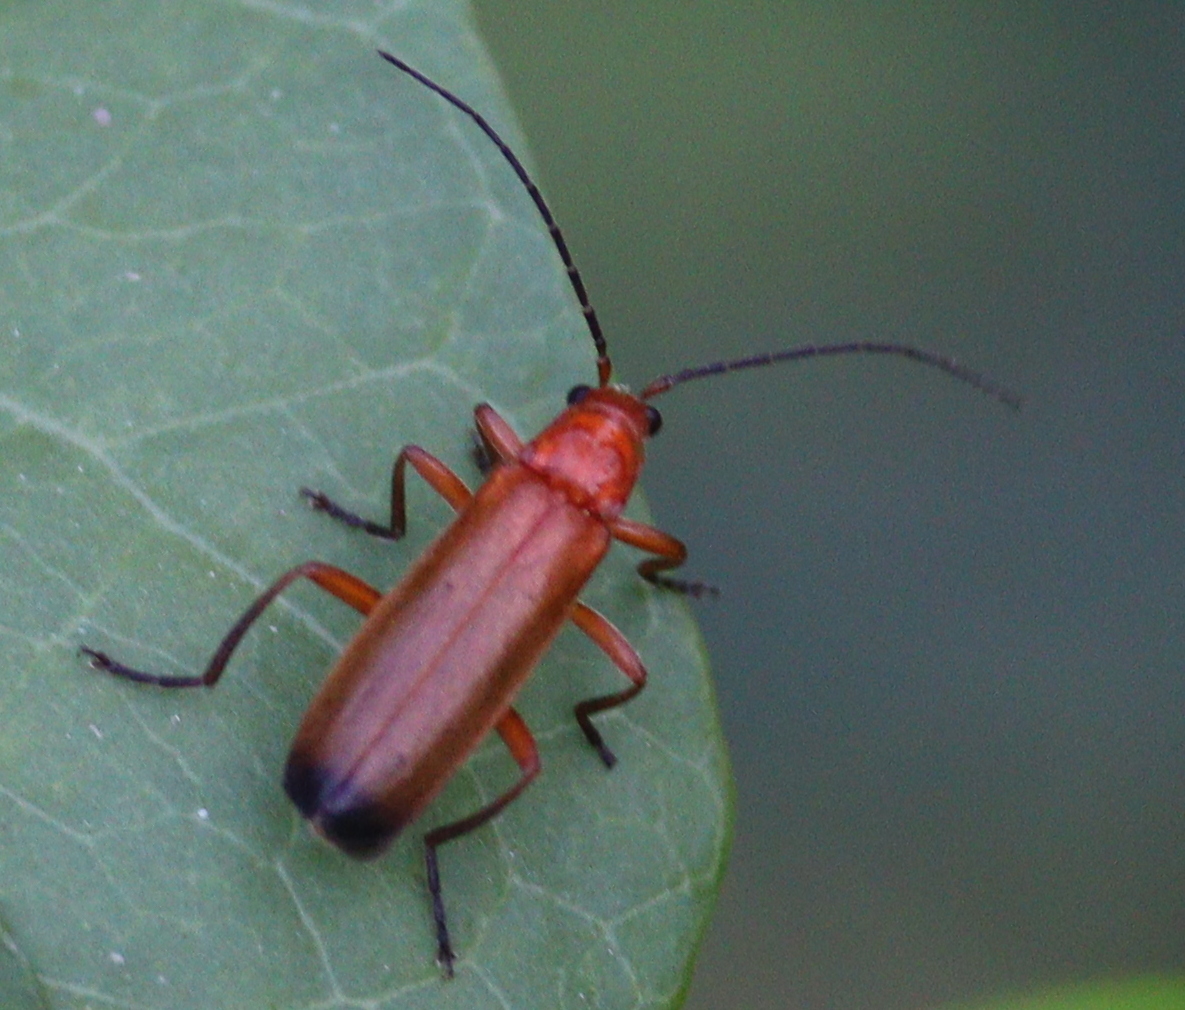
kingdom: Animalia
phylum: Arthropoda
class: Insecta
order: Coleoptera
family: Cantharidae
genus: Rhagonycha
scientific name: Rhagonycha fulva
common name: Common red soldier beetle
